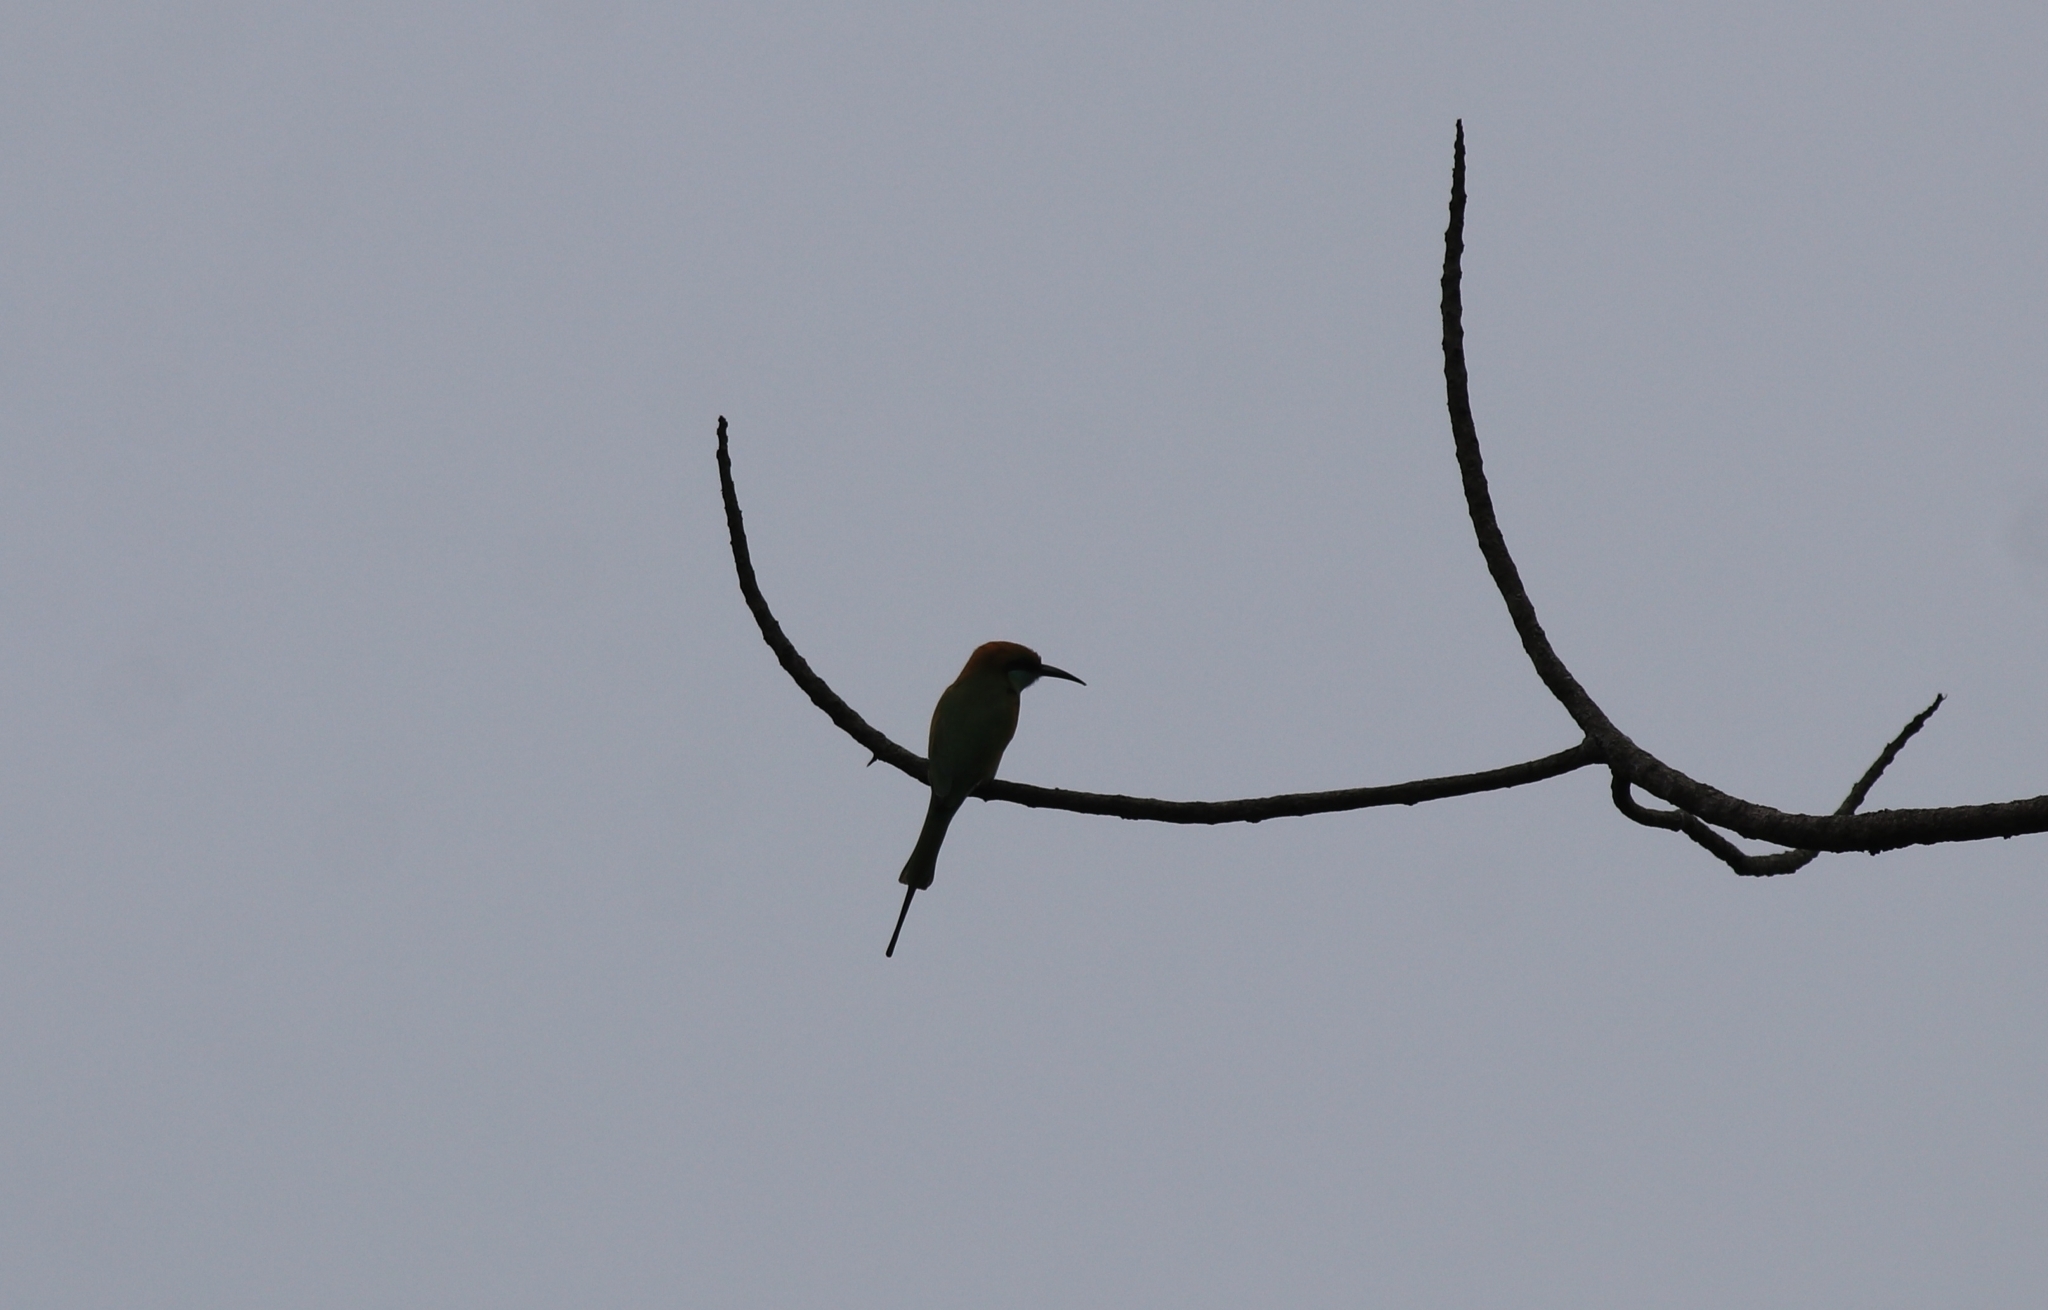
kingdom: Animalia
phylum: Chordata
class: Aves
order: Coraciiformes
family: Meropidae
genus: Merops
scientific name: Merops orientalis
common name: Green bee-eater
